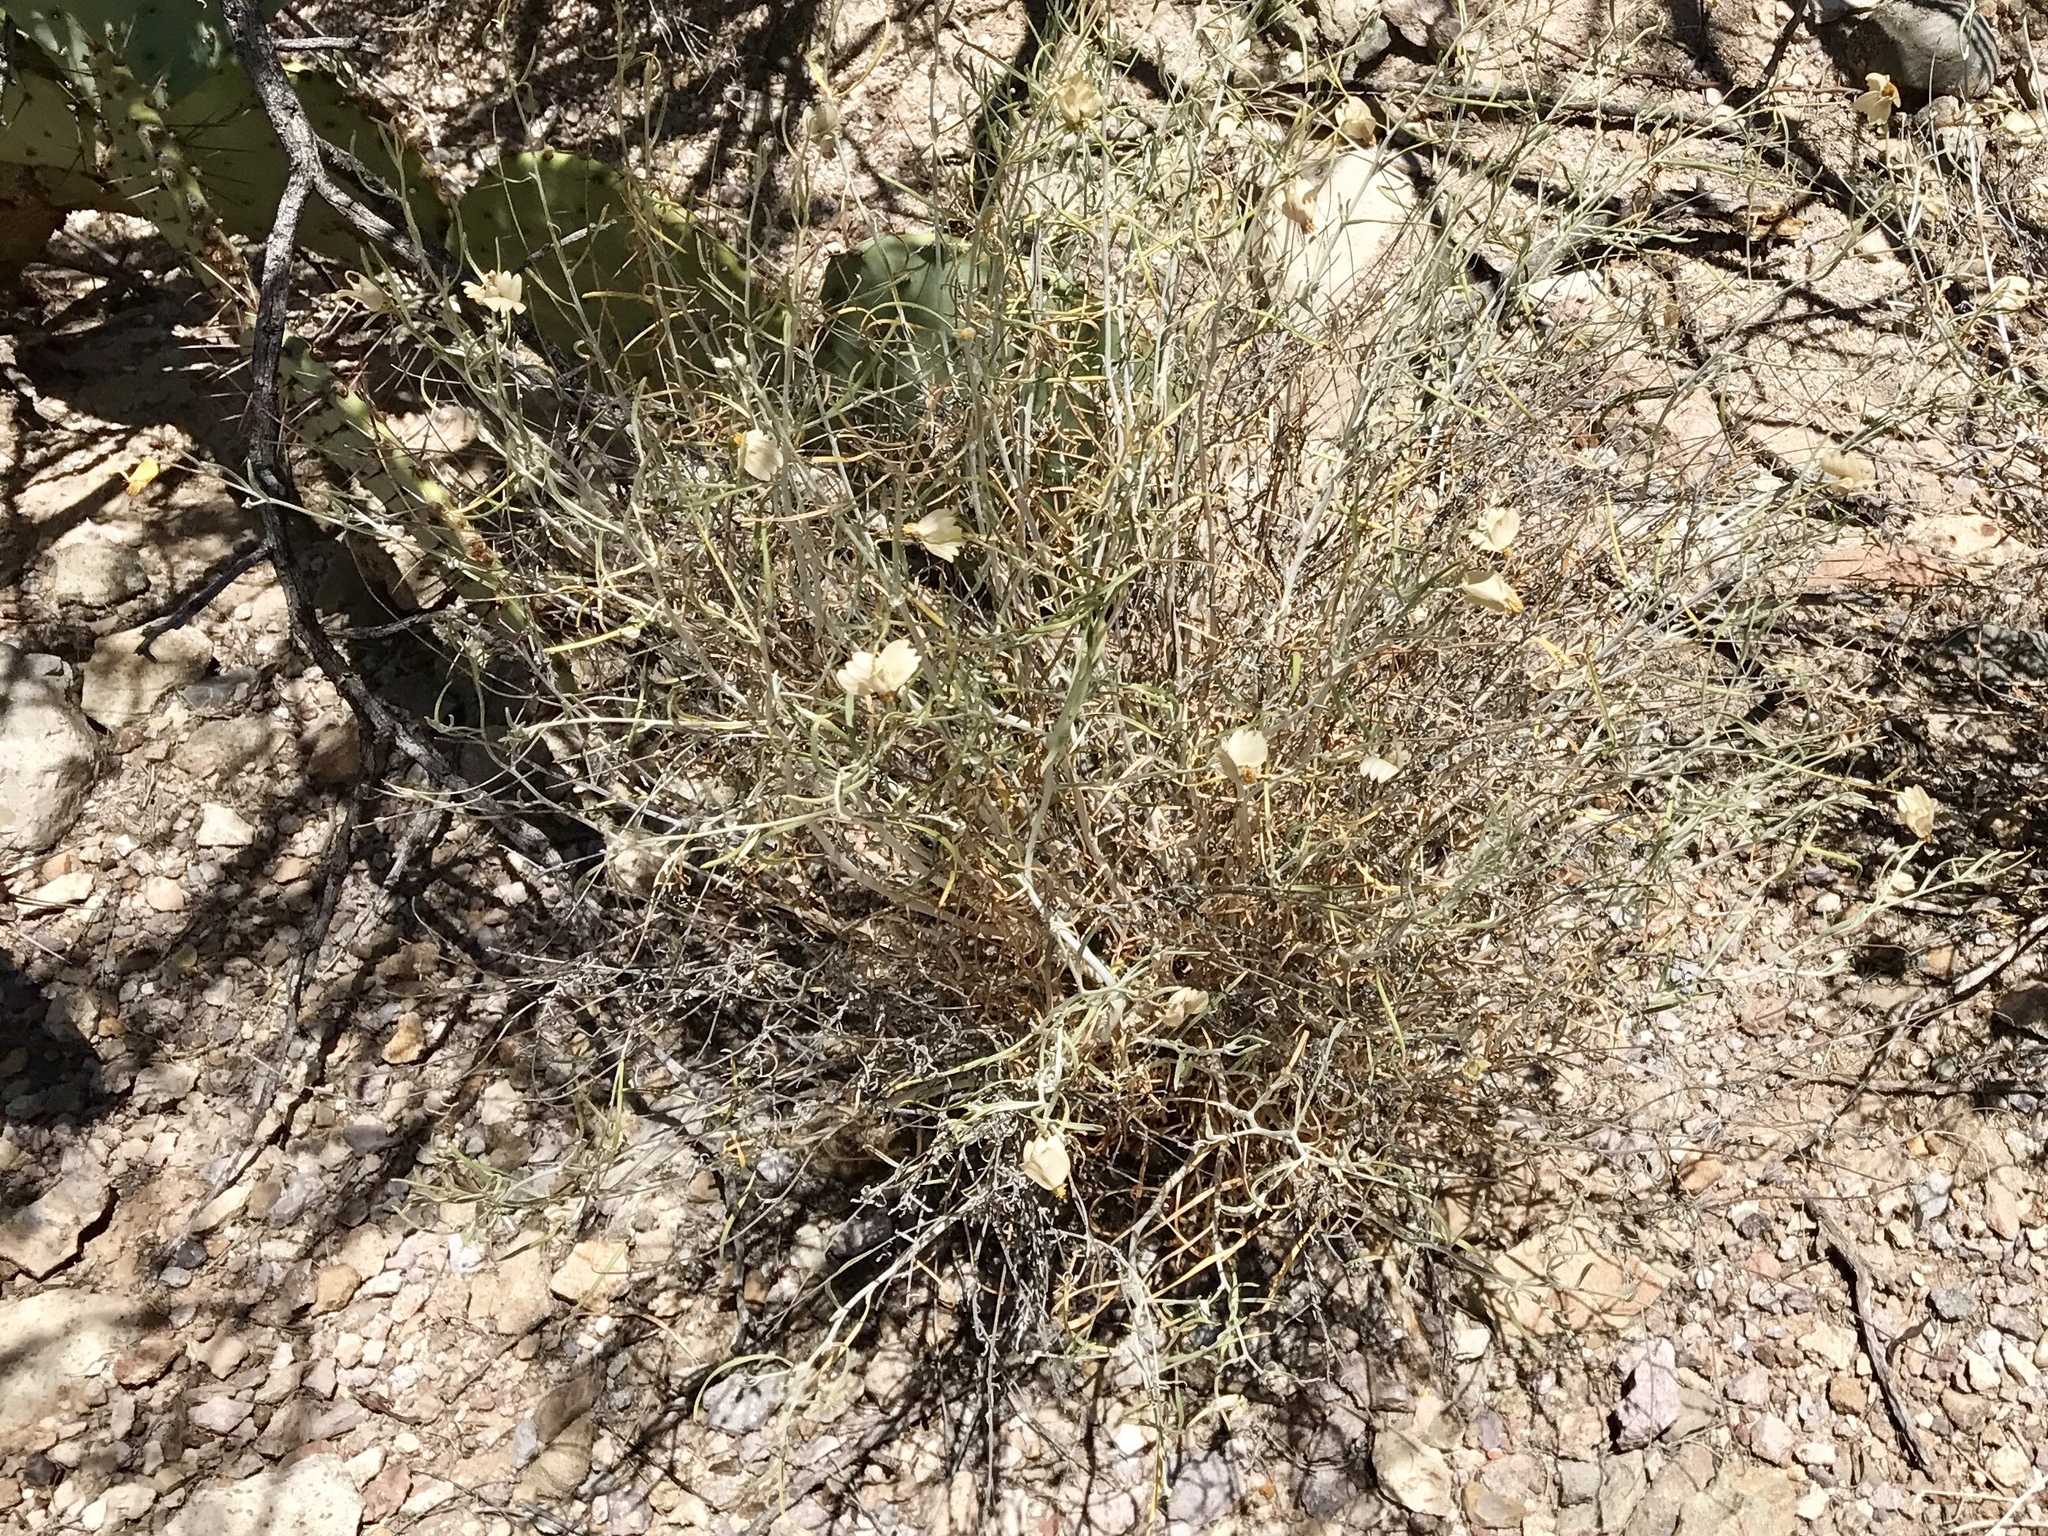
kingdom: Plantae
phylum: Tracheophyta
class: Magnoliopsida
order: Asterales
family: Asteraceae
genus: Zinnia
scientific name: Zinnia acerosa
